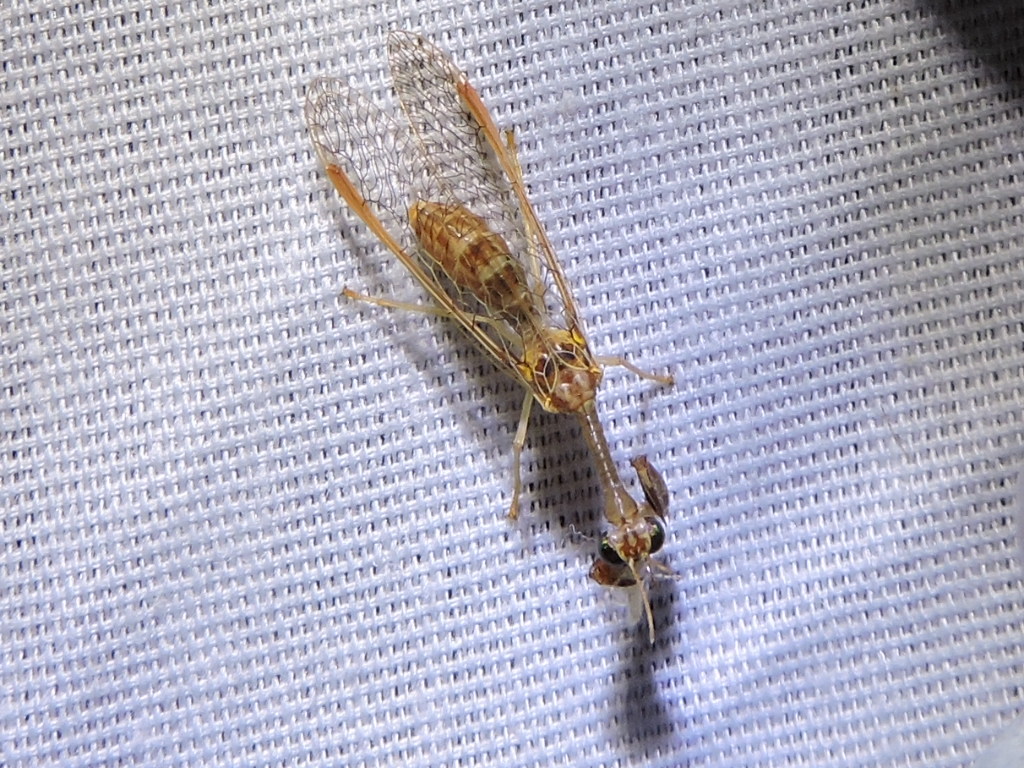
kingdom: Animalia
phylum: Arthropoda
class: Insecta
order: Neuroptera
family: Mantispidae
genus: Dicromantispa
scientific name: Dicromantispa sayi
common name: Say's mantidfly
